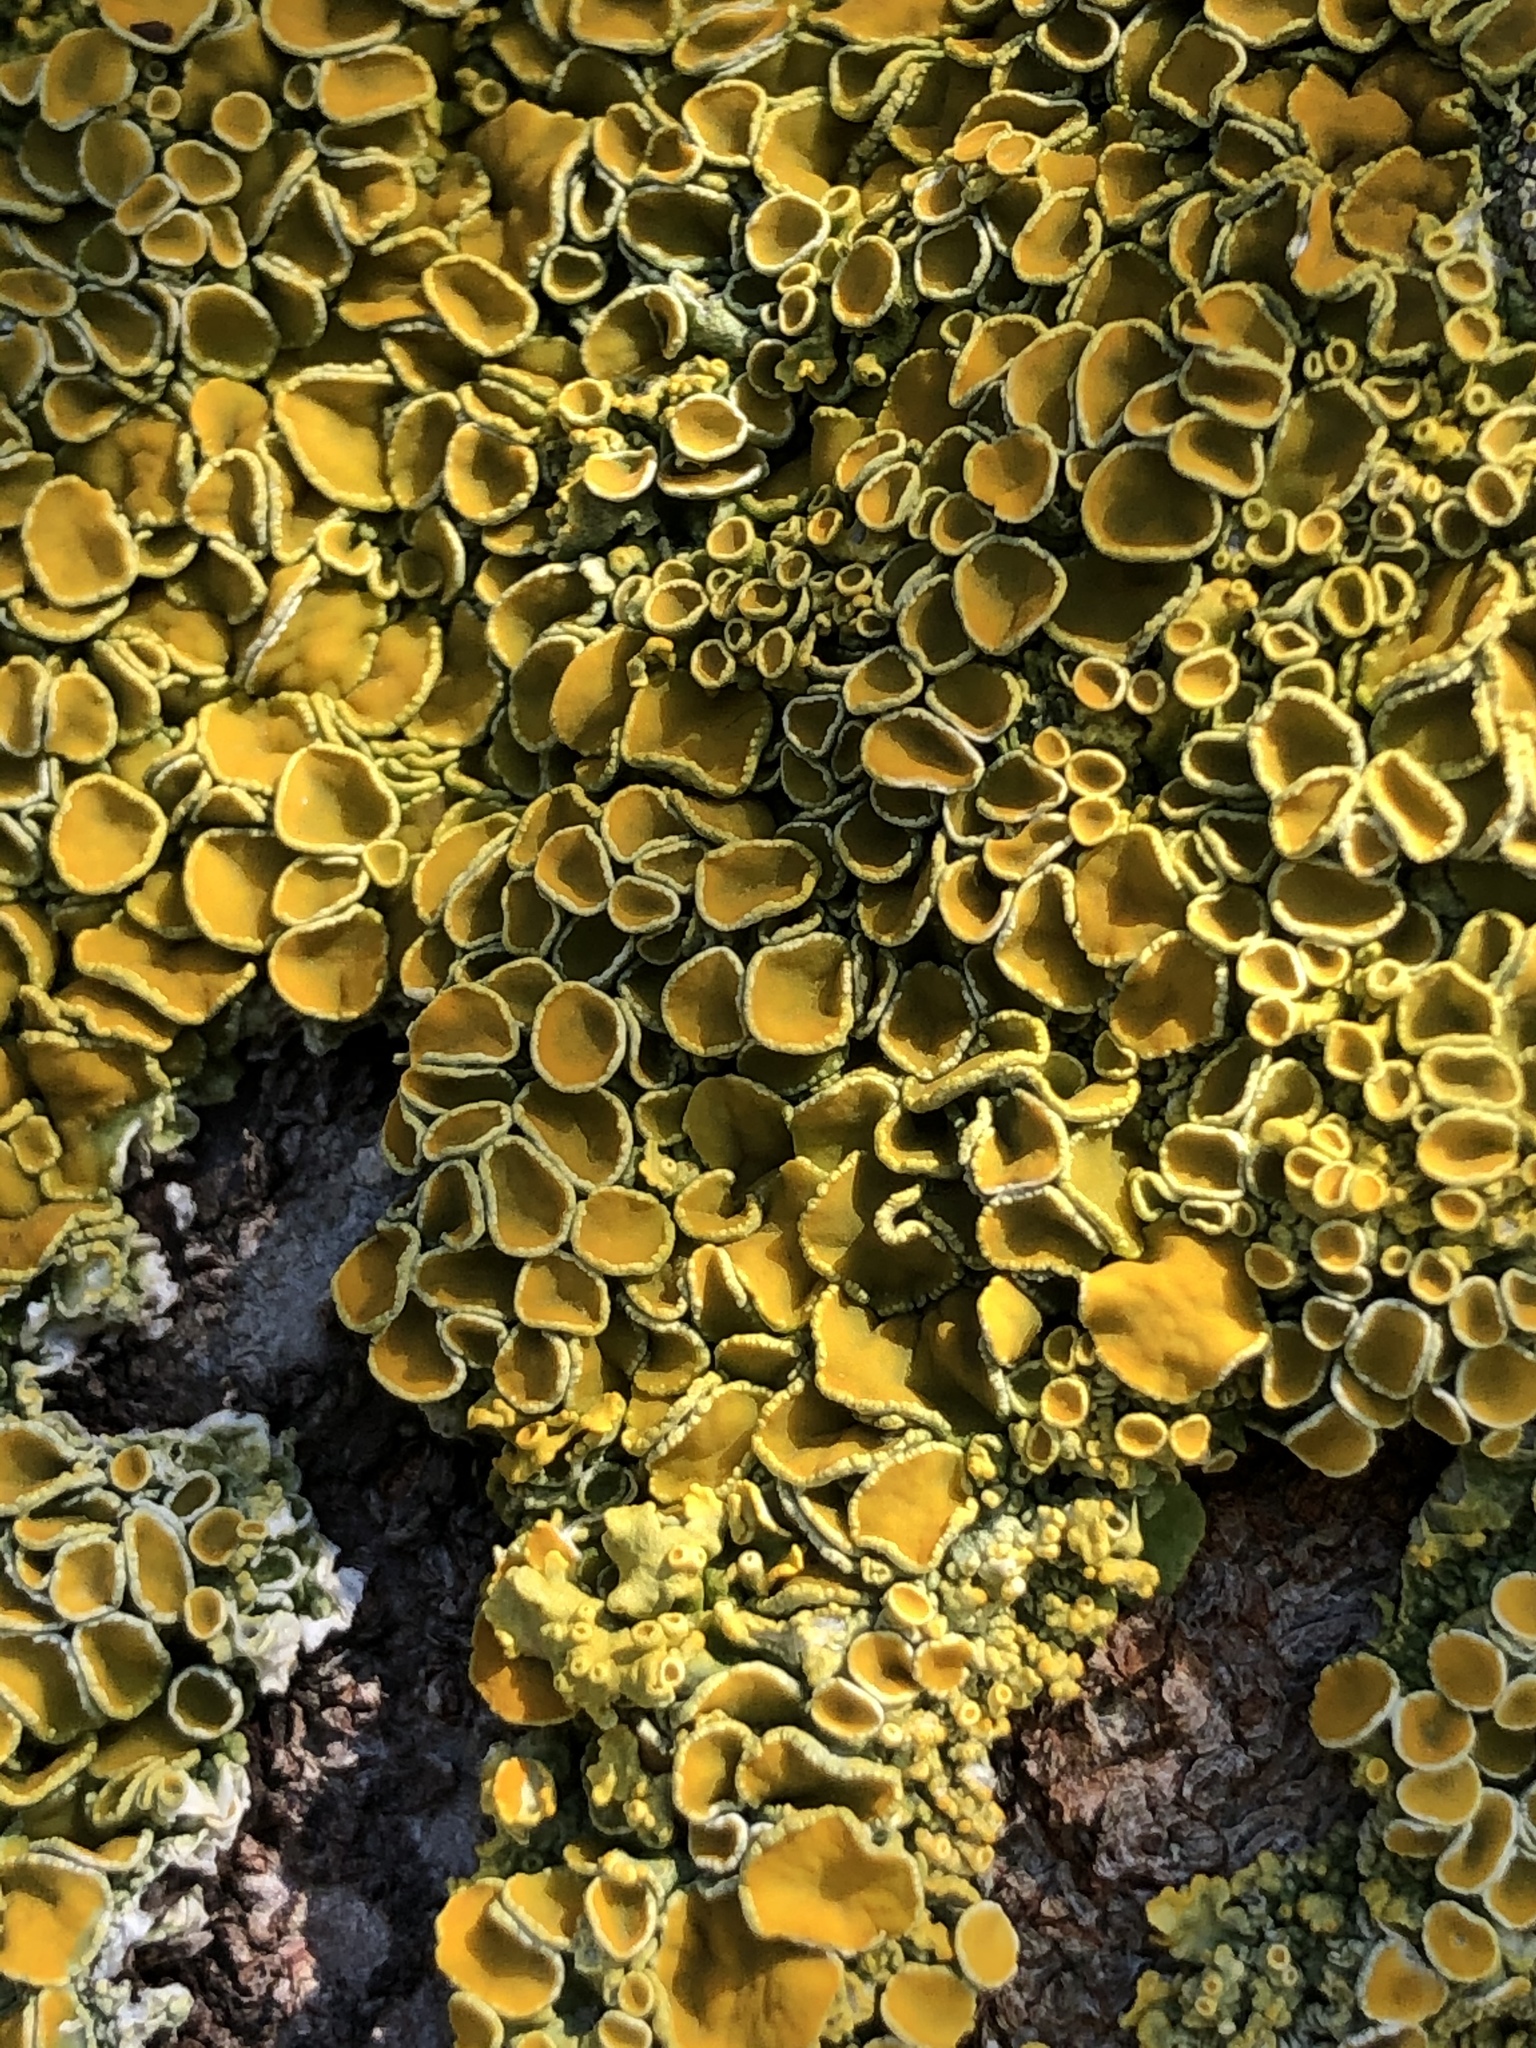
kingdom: Fungi
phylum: Ascomycota
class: Lecanoromycetes
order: Teloschistales
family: Teloschistaceae
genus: Xanthoria
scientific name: Xanthoria parietina
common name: Common orange lichen
